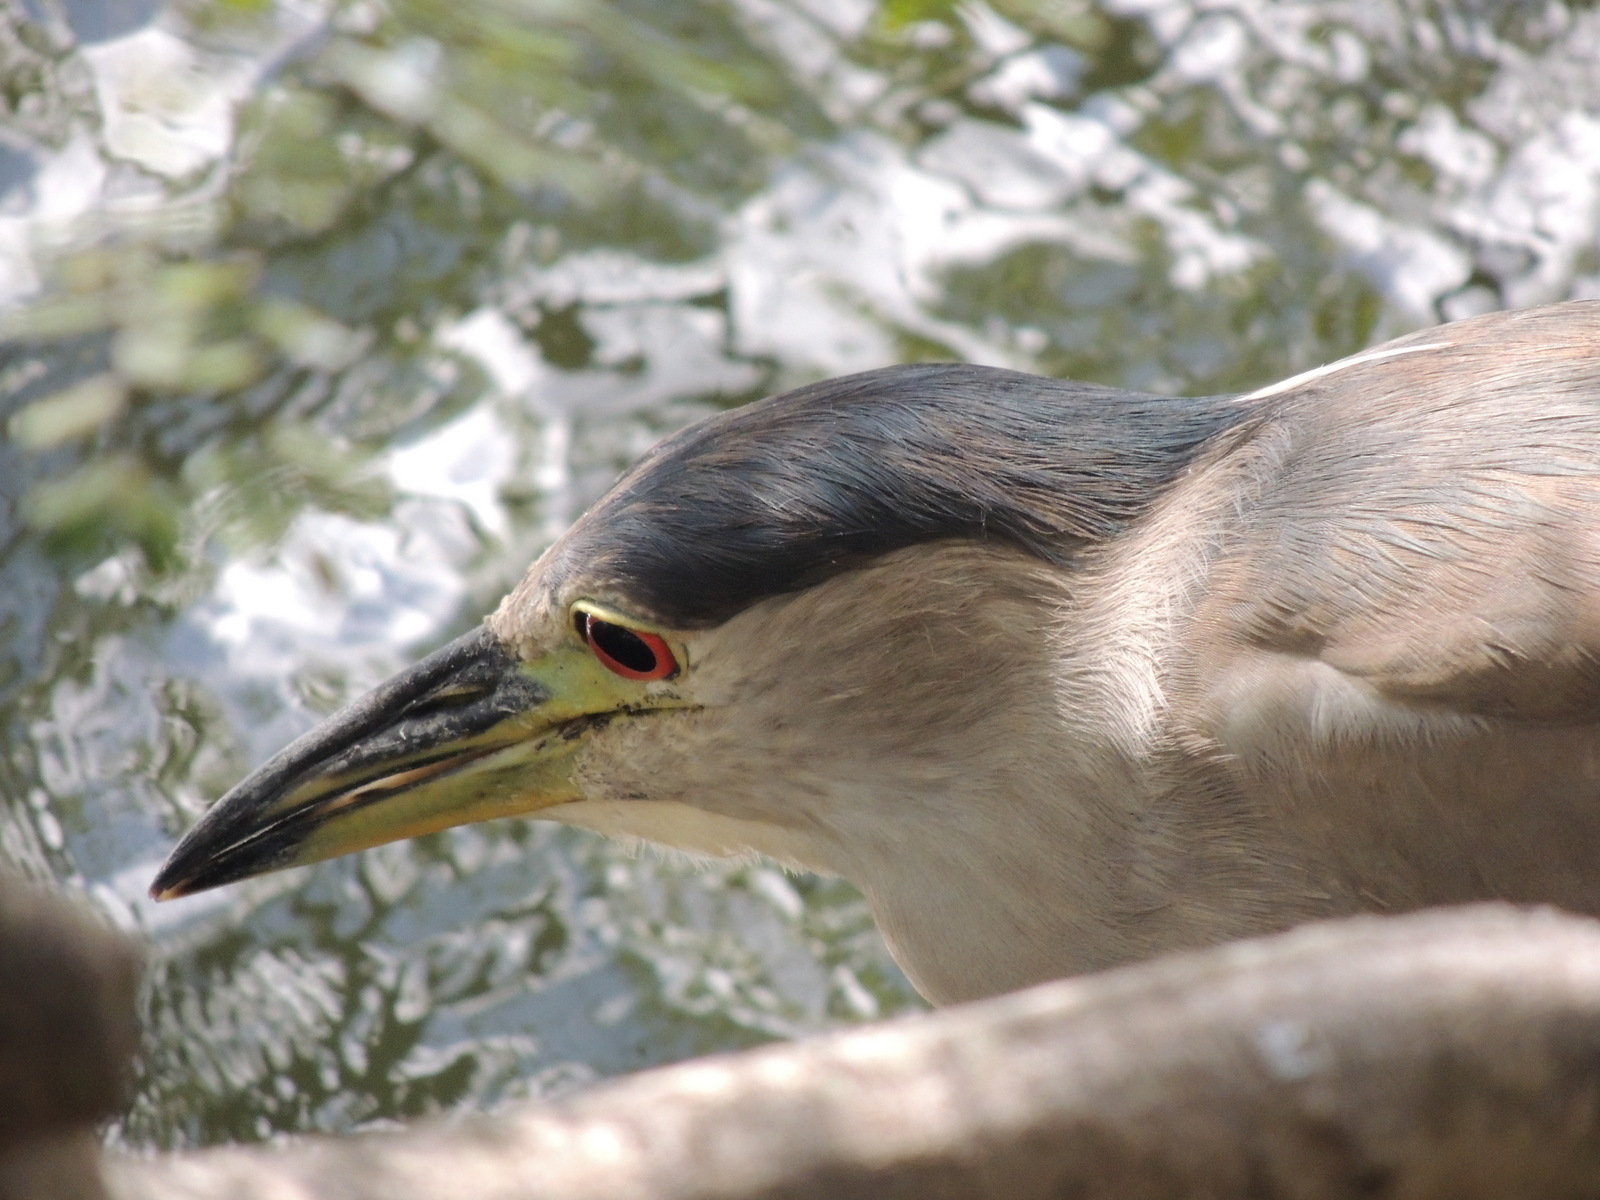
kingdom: Animalia
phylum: Chordata
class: Aves
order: Pelecaniformes
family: Ardeidae
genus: Nycticorax
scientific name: Nycticorax nycticorax
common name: Black-crowned night heron
